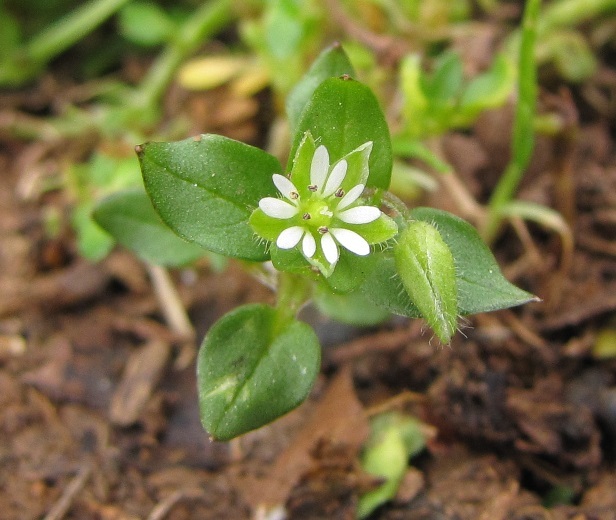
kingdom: Plantae
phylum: Tracheophyta
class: Magnoliopsida
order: Caryophyllales
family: Caryophyllaceae
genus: Stellaria
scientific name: Stellaria media
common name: Common chickweed
